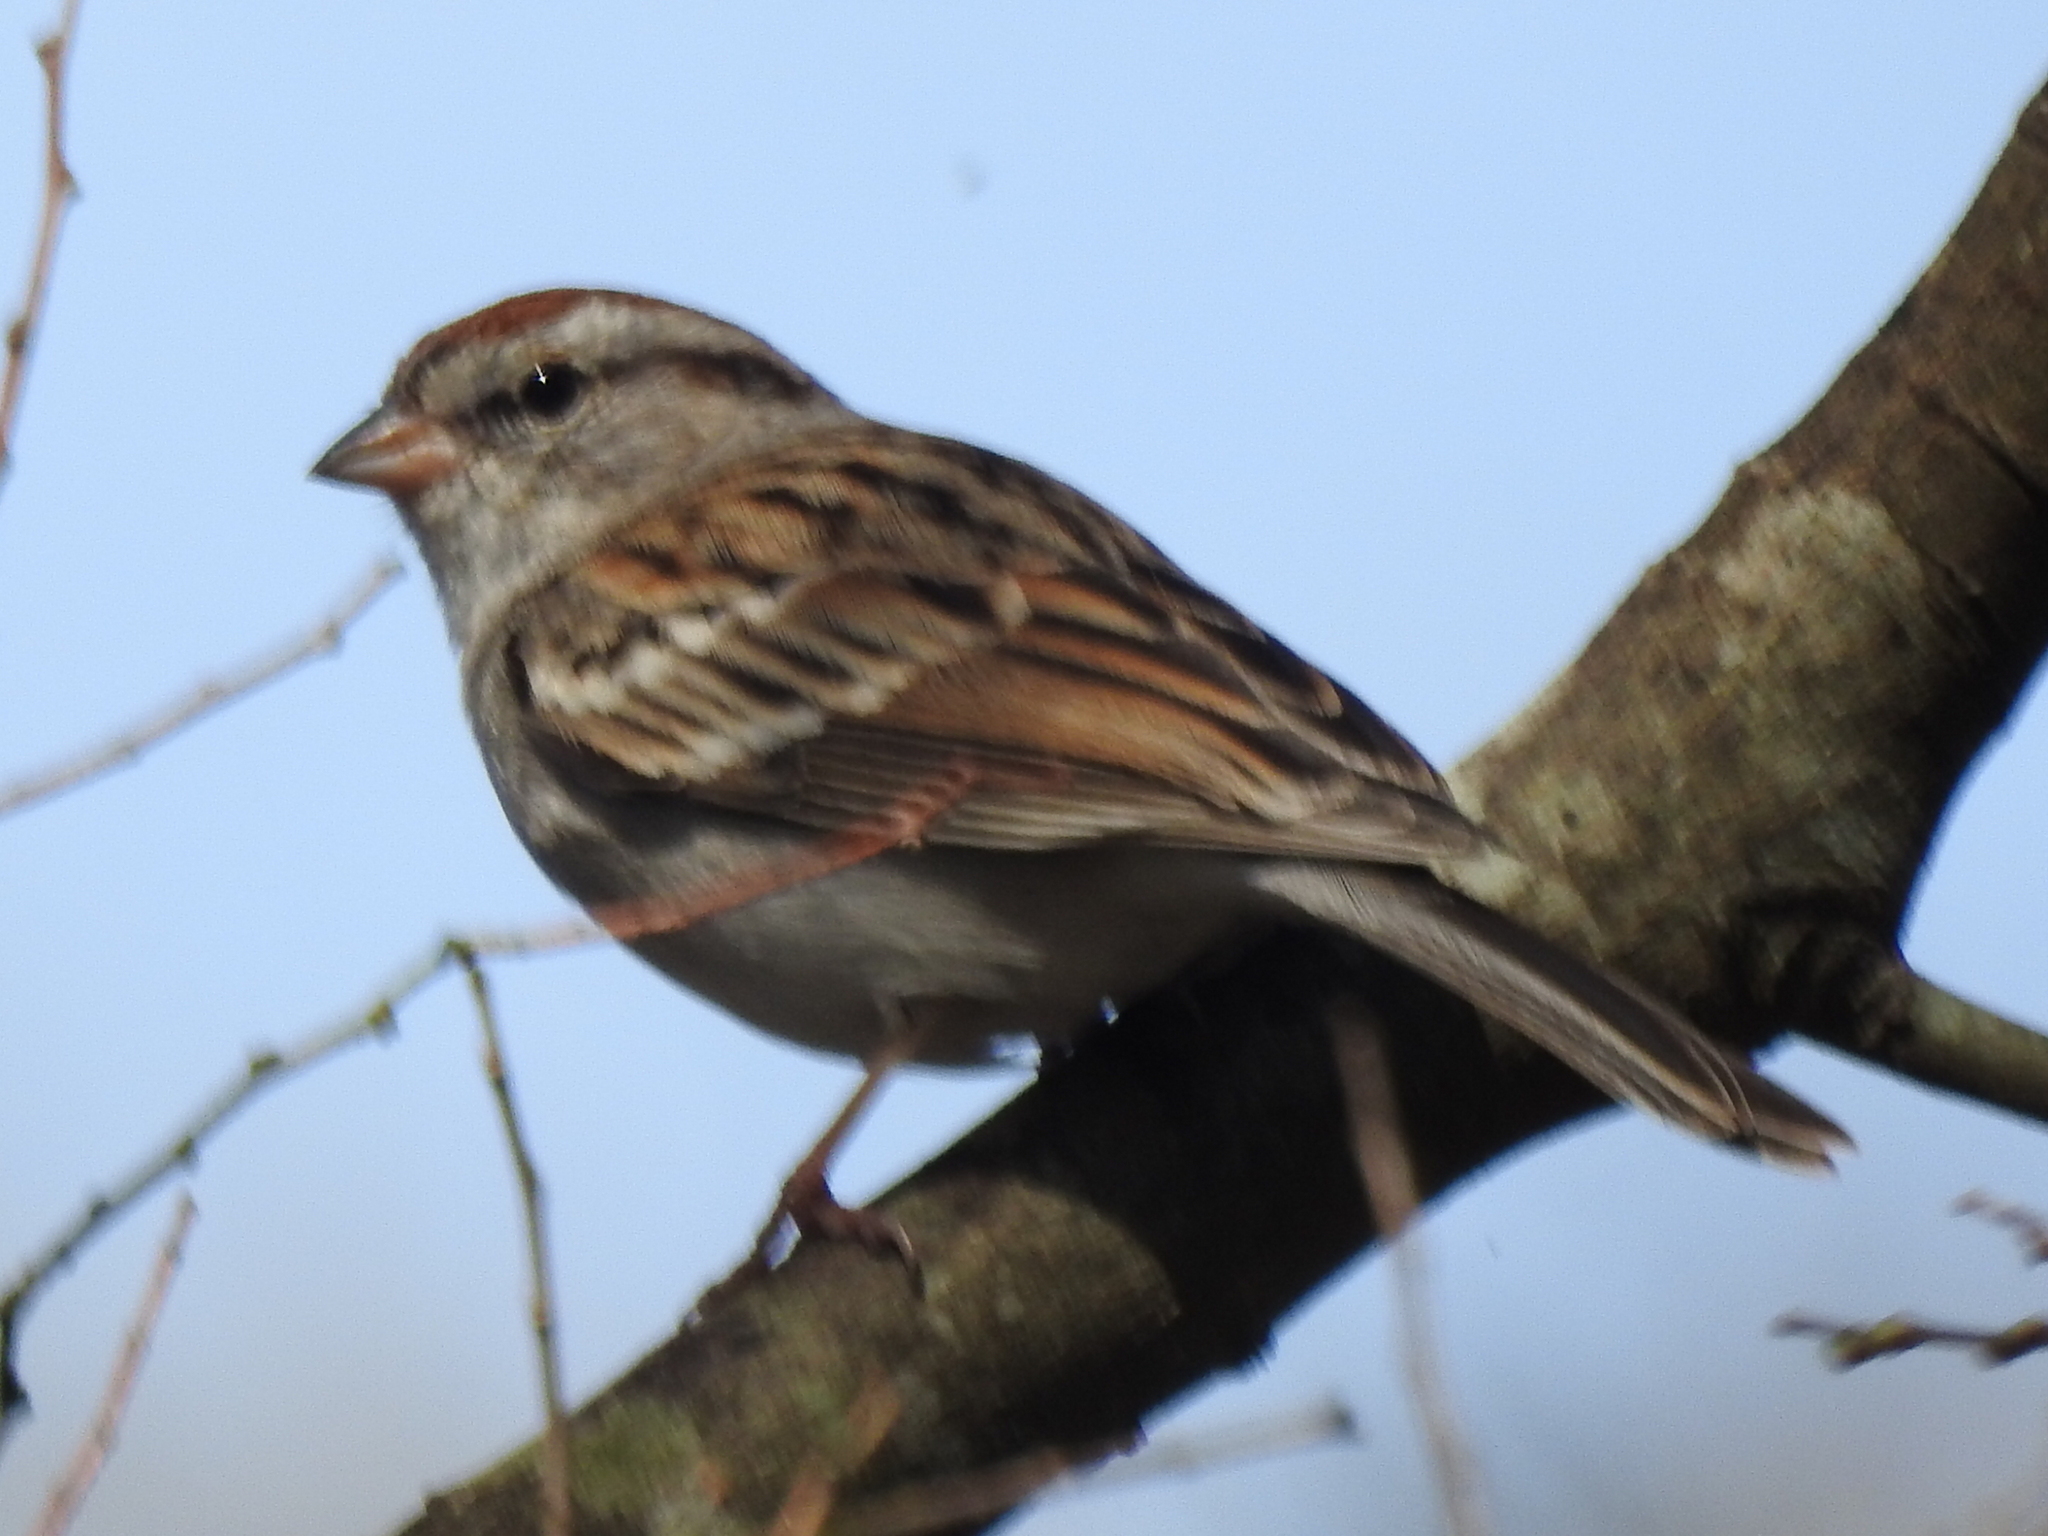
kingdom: Animalia
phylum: Chordata
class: Aves
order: Passeriformes
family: Passerellidae
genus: Spizella
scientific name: Spizella passerina
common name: Chipping sparrow
